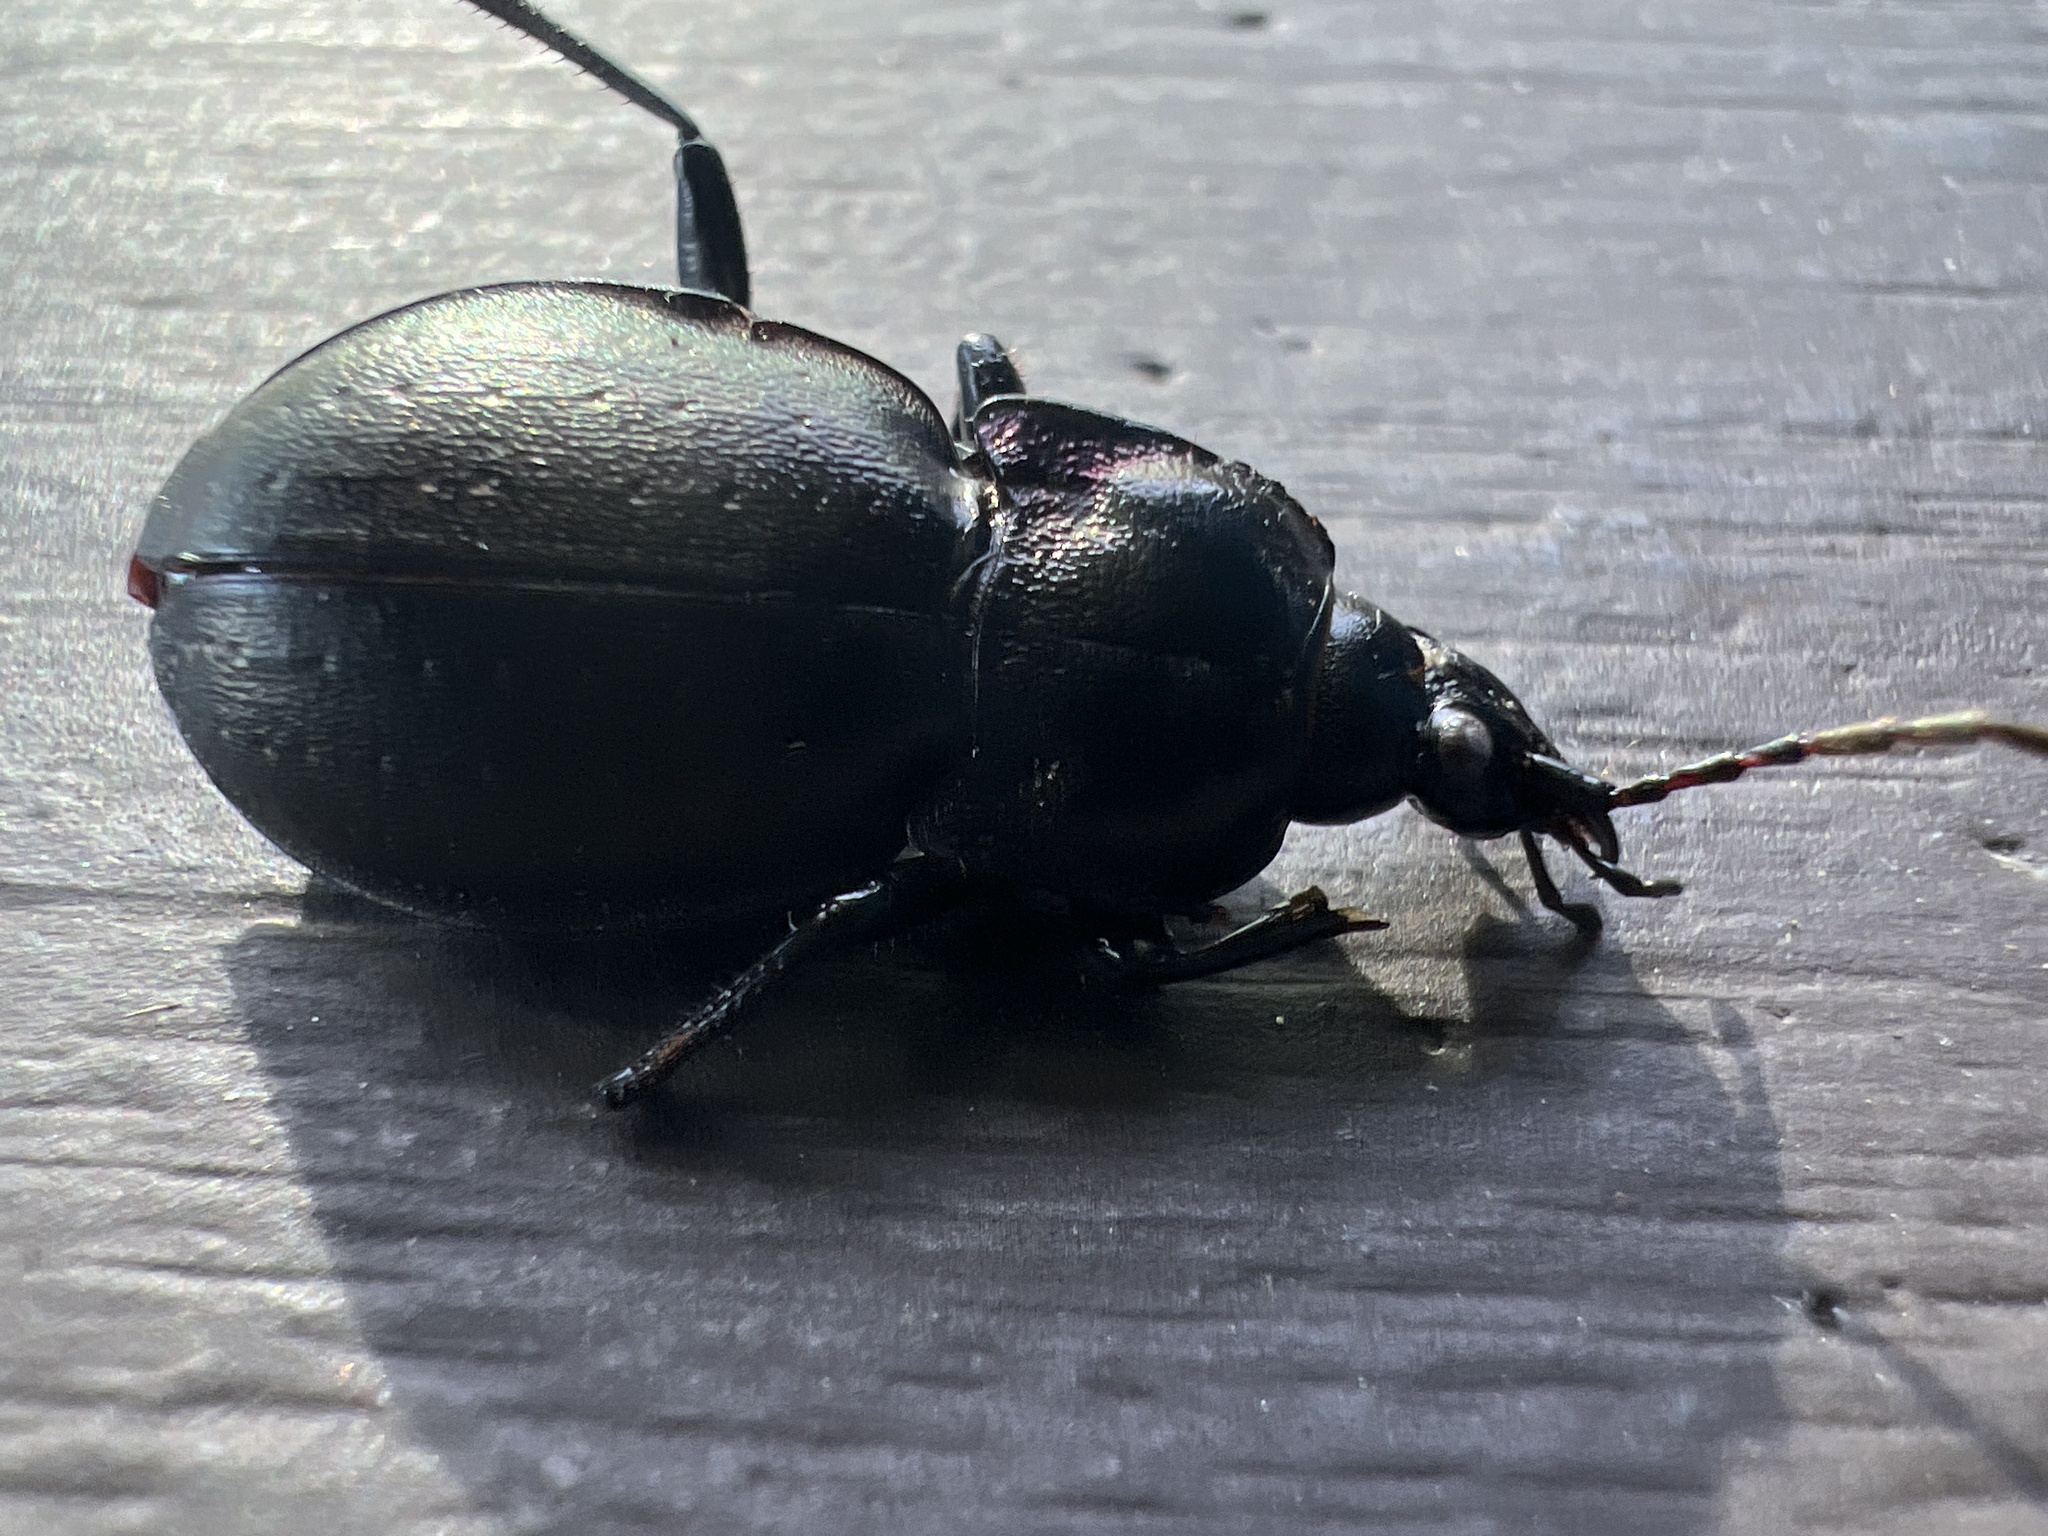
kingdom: Animalia
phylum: Arthropoda
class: Insecta
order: Coleoptera
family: Carabidae
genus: Carabus
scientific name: Carabus nemoralis
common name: European ground beetle
